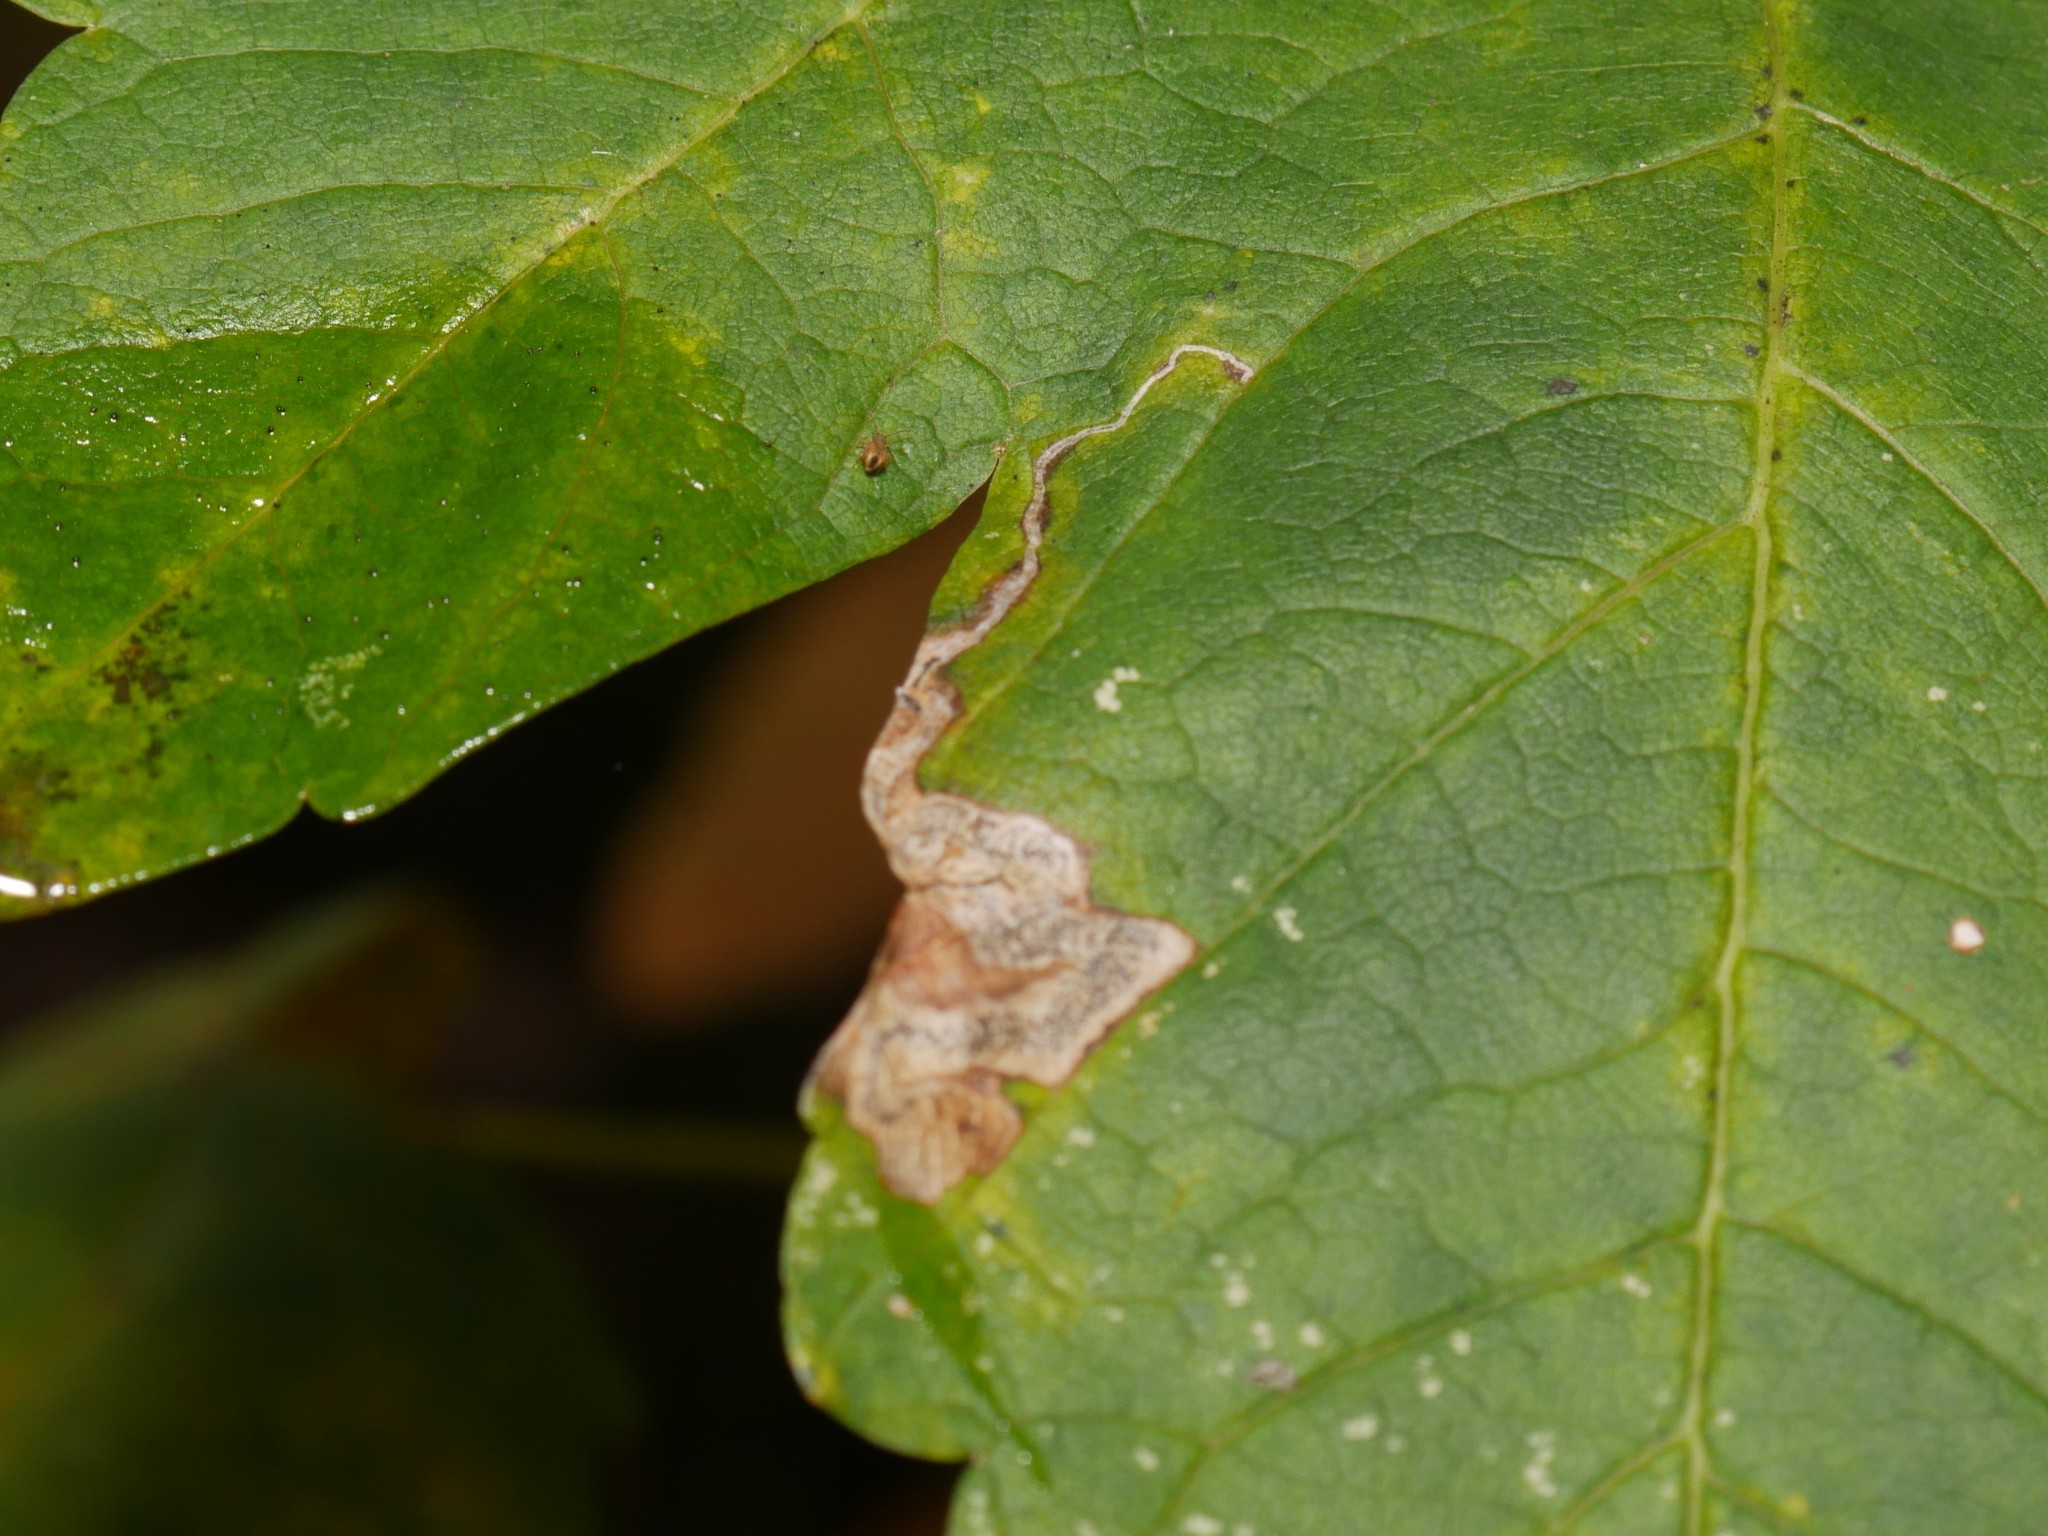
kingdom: Animalia
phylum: Arthropoda
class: Insecta
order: Lepidoptera
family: Nepticulidae
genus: Stigmella
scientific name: Stigmella speciosa
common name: Barred sycamore pigmy
